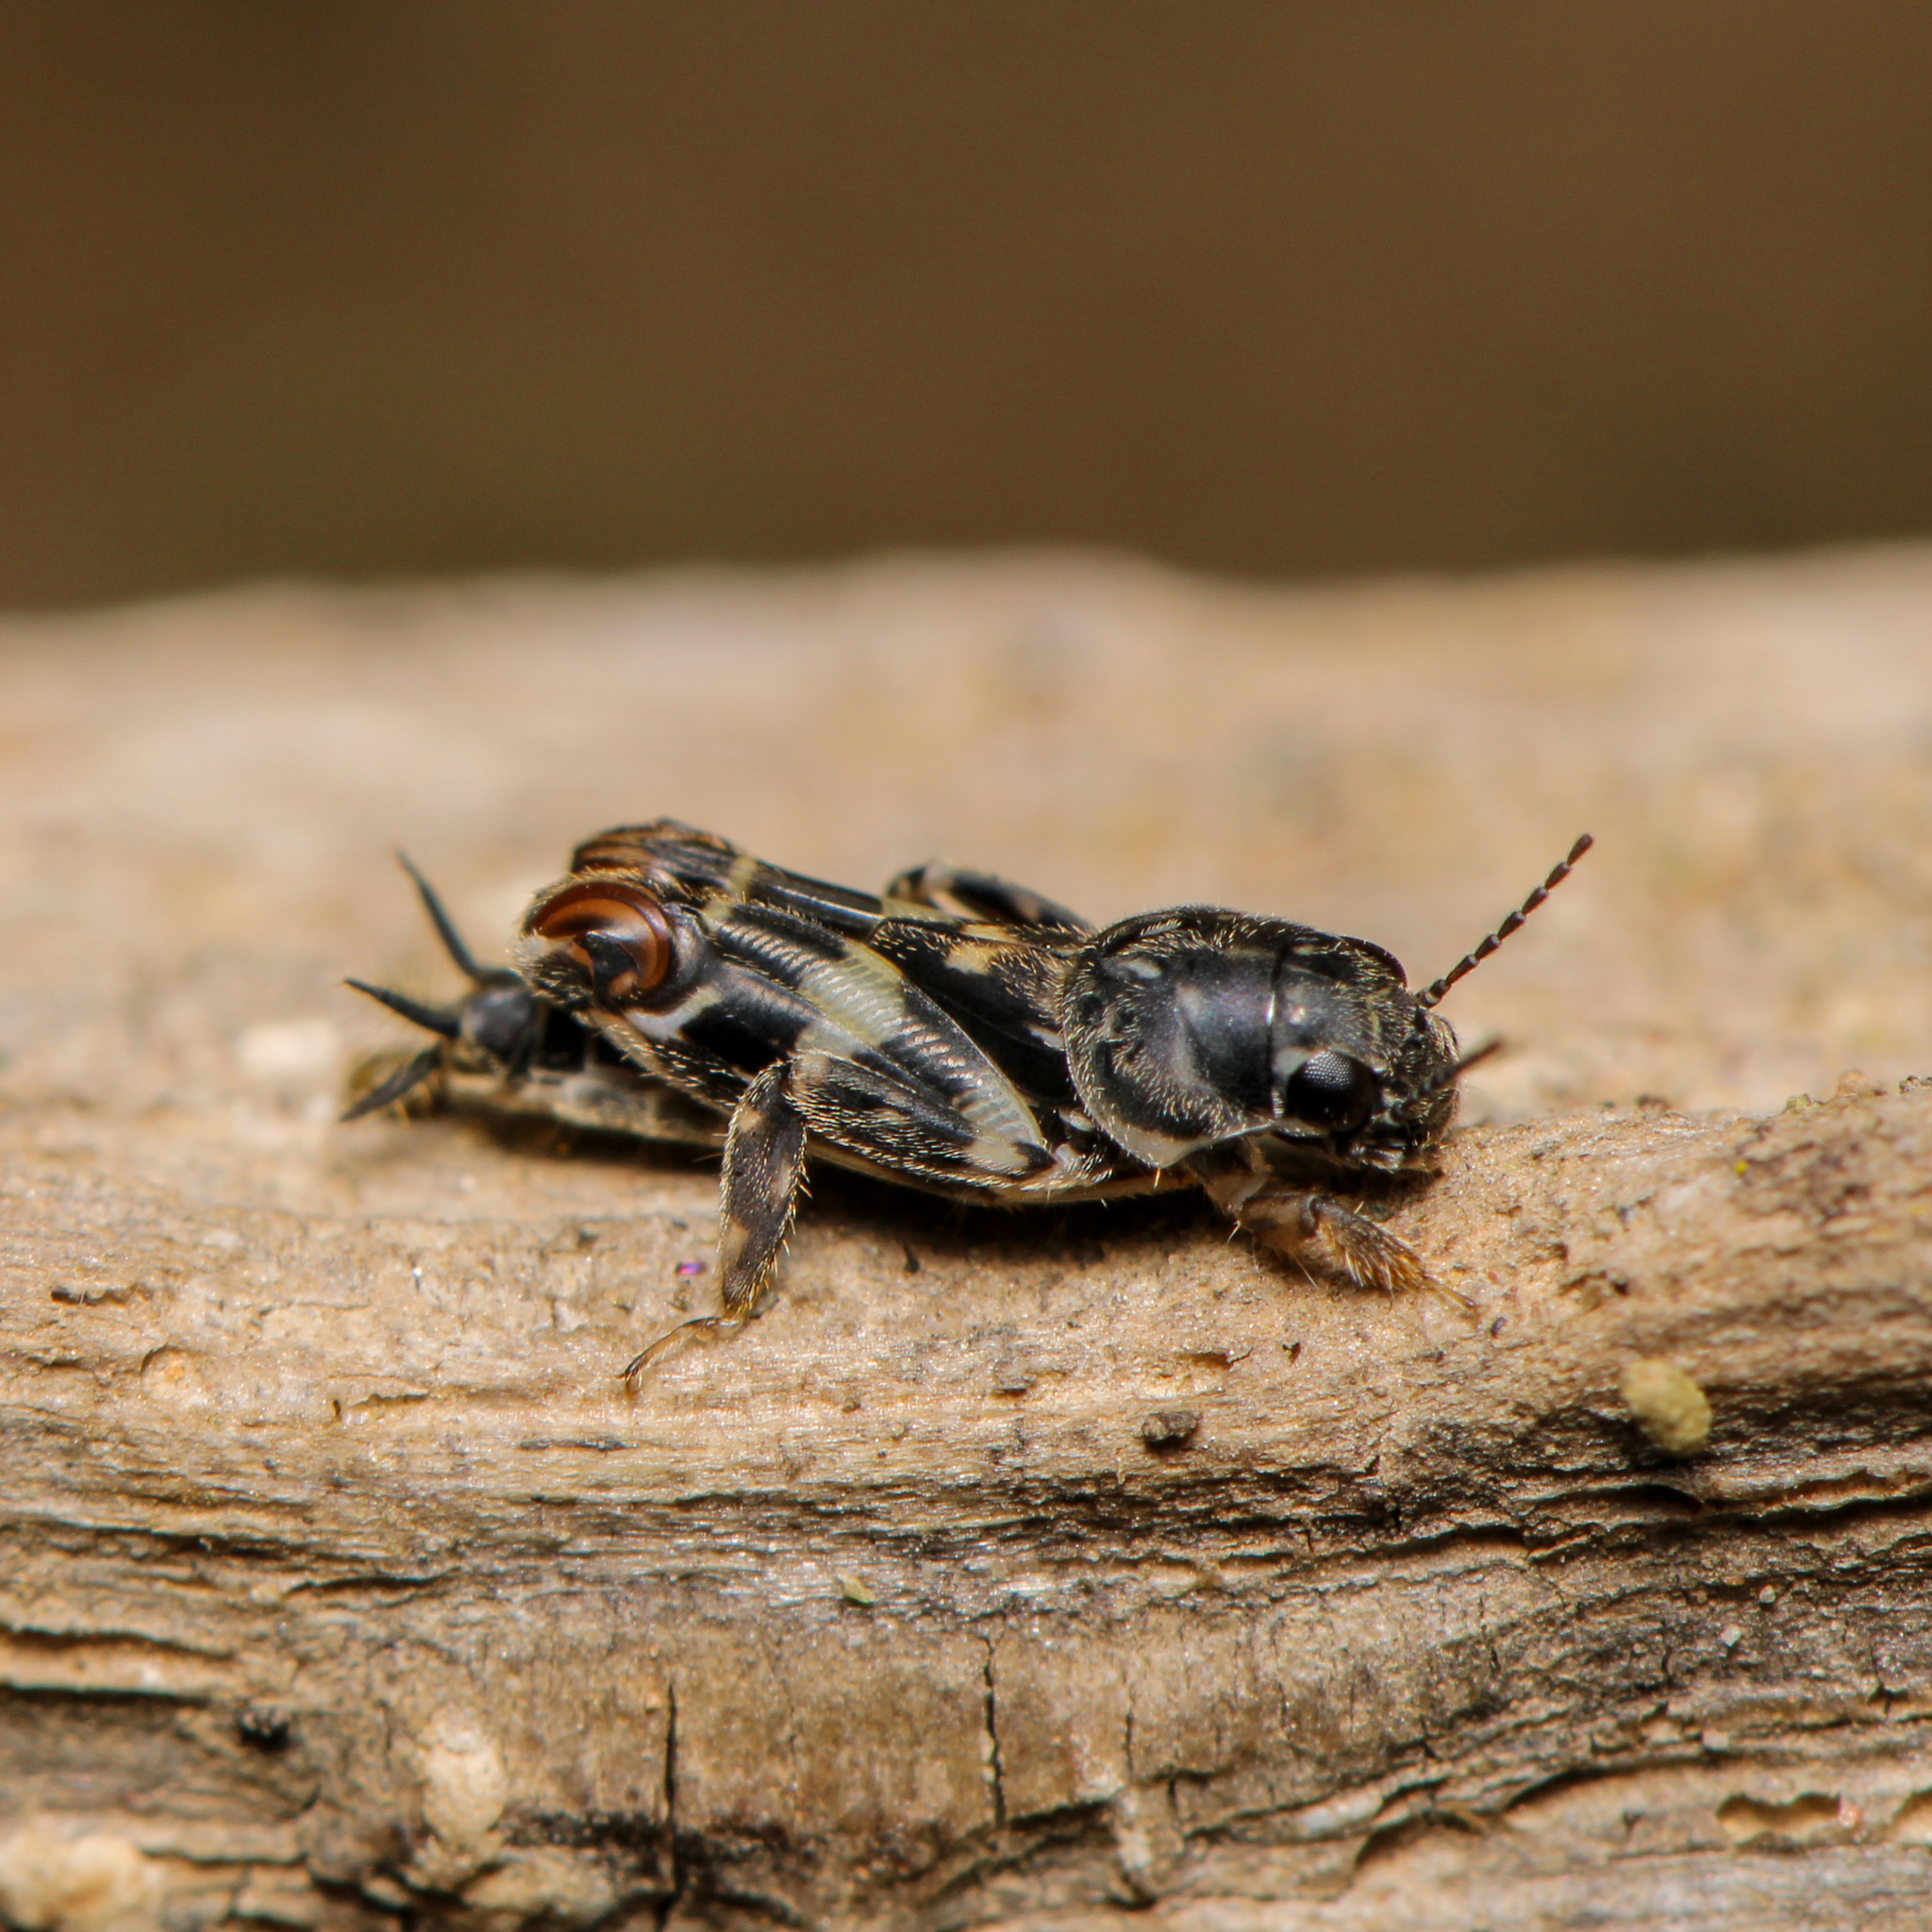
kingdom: Animalia
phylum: Arthropoda
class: Insecta
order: Orthoptera
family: Tridactylidae
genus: Ellipes
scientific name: Ellipes minuta
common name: Minute pygmy locust
